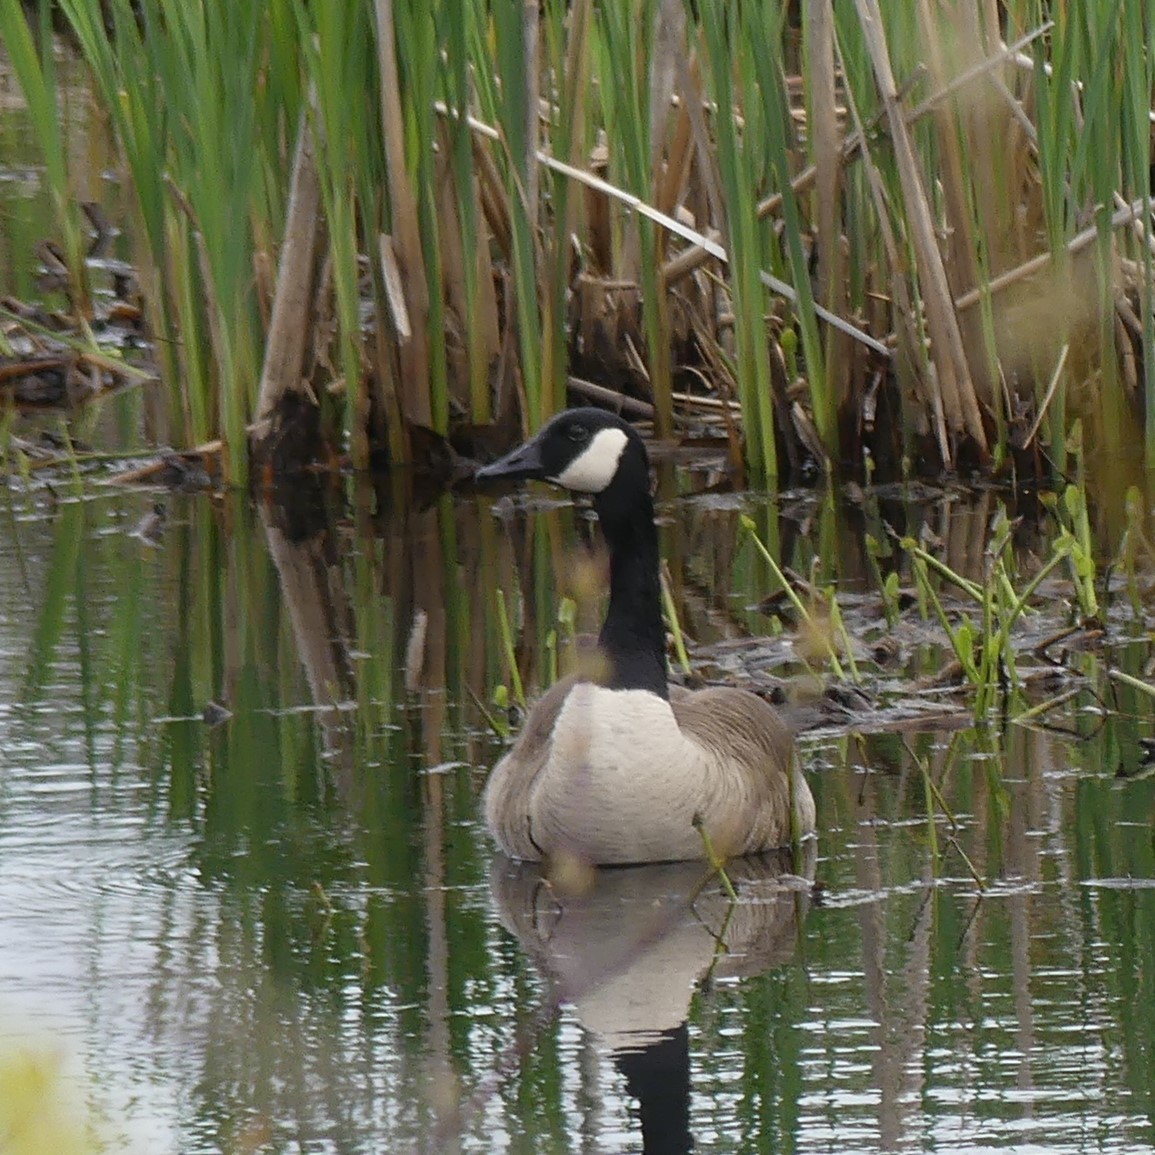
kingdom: Animalia
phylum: Chordata
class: Aves
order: Anseriformes
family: Anatidae
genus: Branta
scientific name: Branta canadensis
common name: Canada goose
